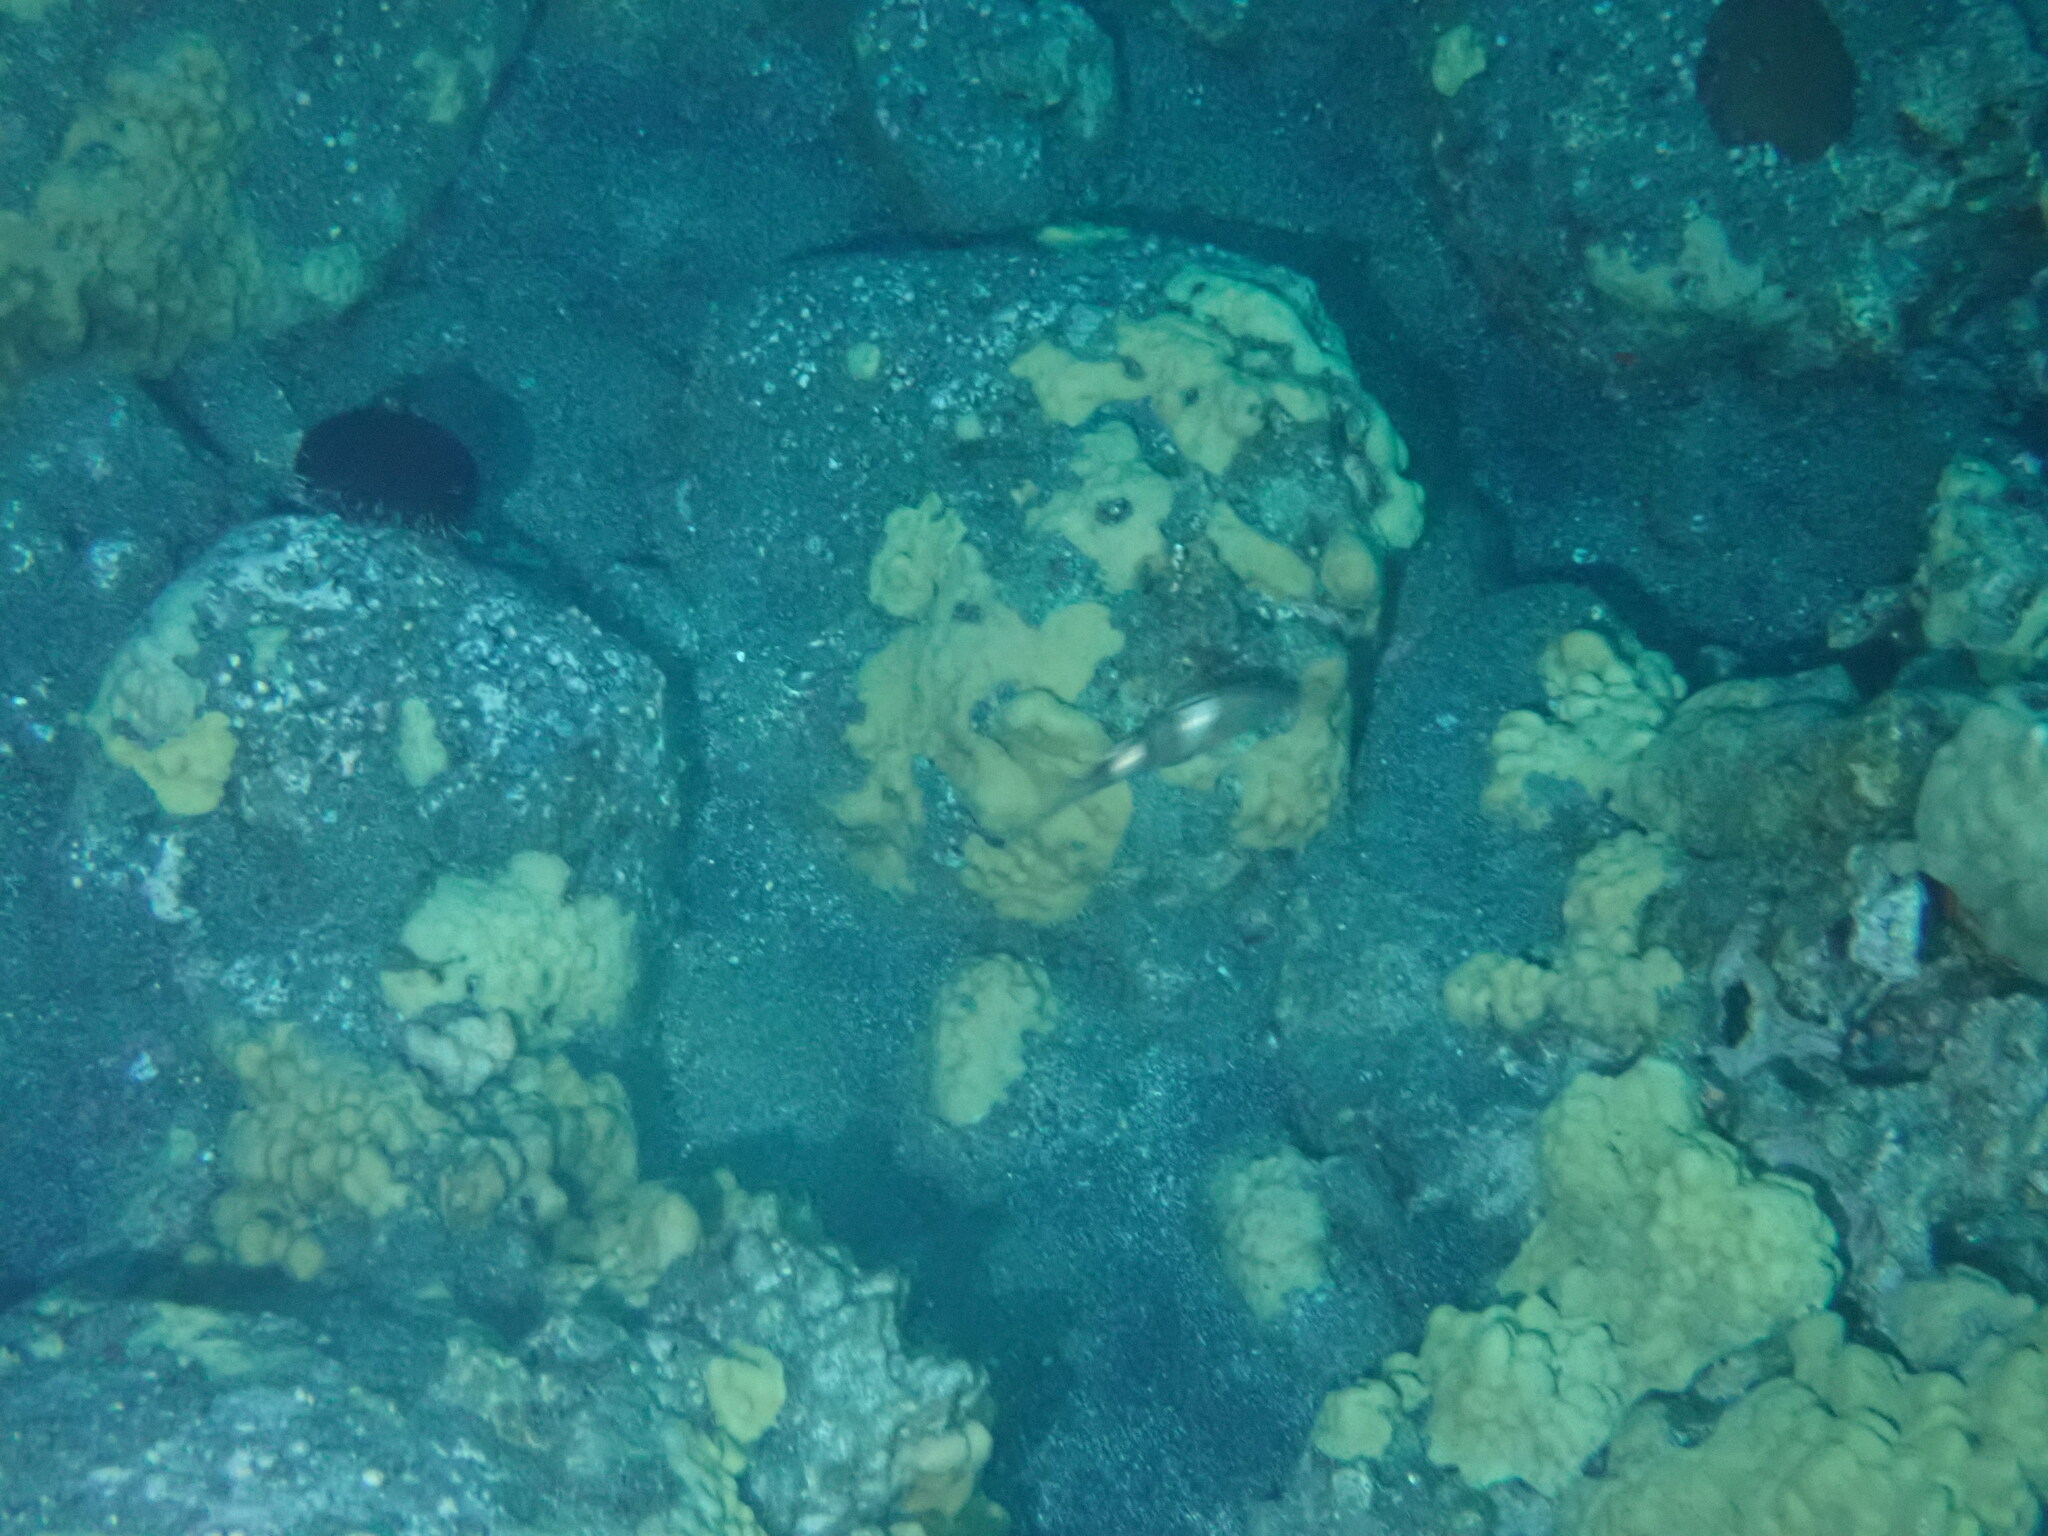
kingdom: Animalia
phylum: Chordata
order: Perciformes
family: Mullidae
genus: Parupeneus
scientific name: Parupeneus multifasciatus
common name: Manybar goatfish
